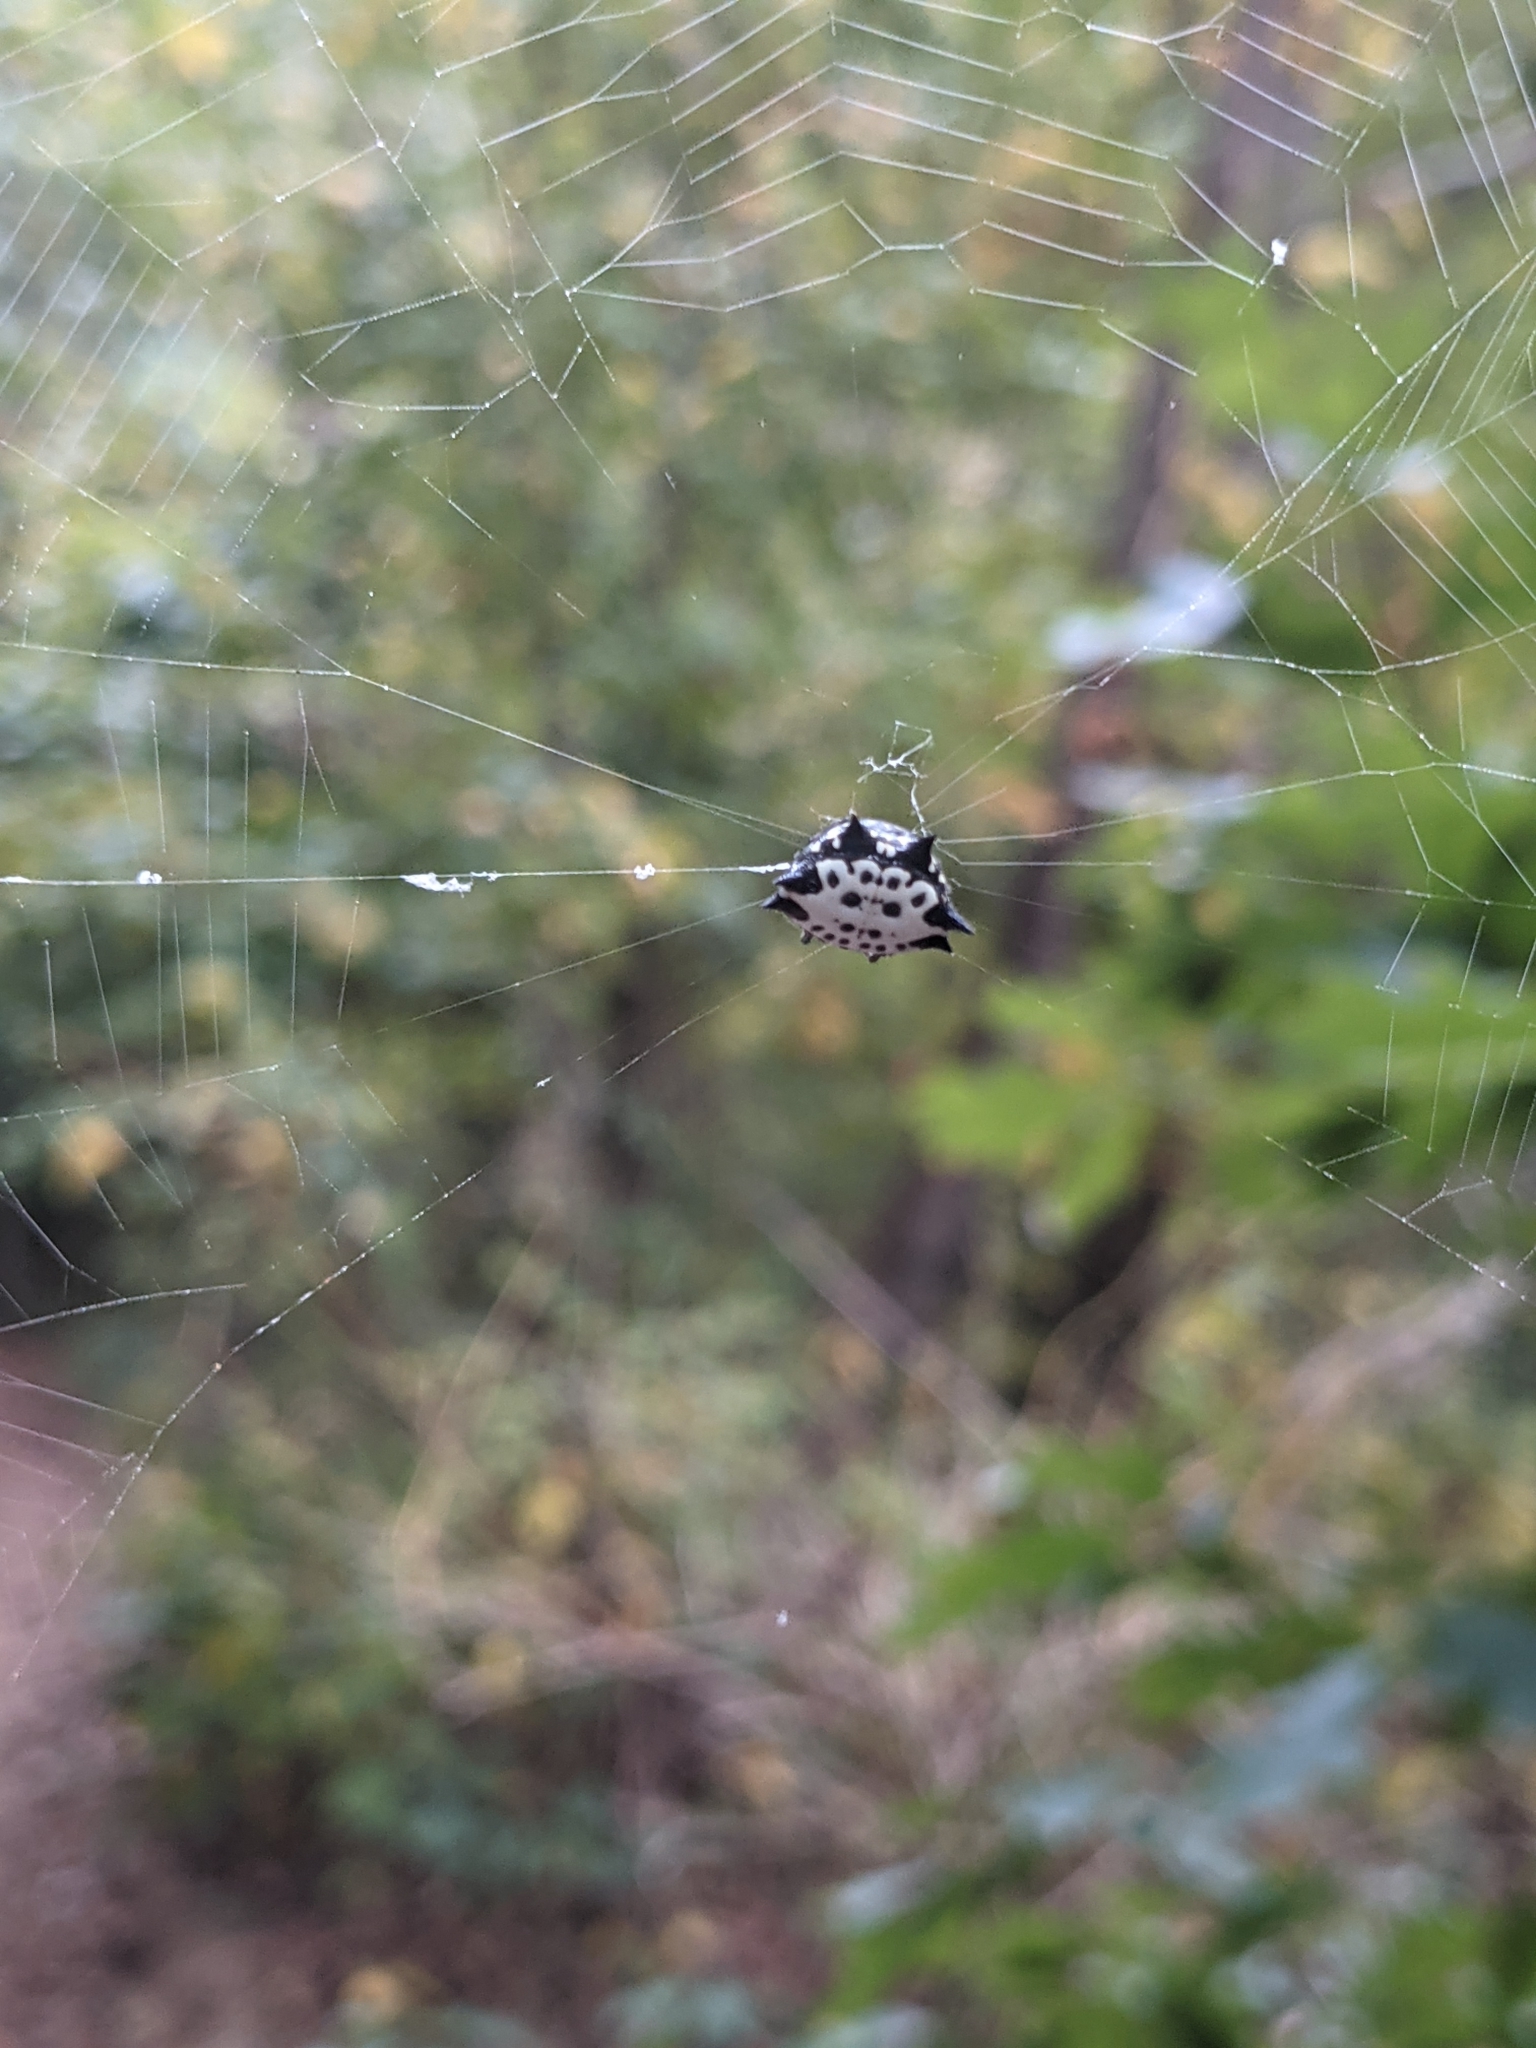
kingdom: Animalia
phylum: Arthropoda
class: Arachnida
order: Araneae
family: Araneidae
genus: Gasteracantha
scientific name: Gasteracantha cancriformis
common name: Orb weavers
